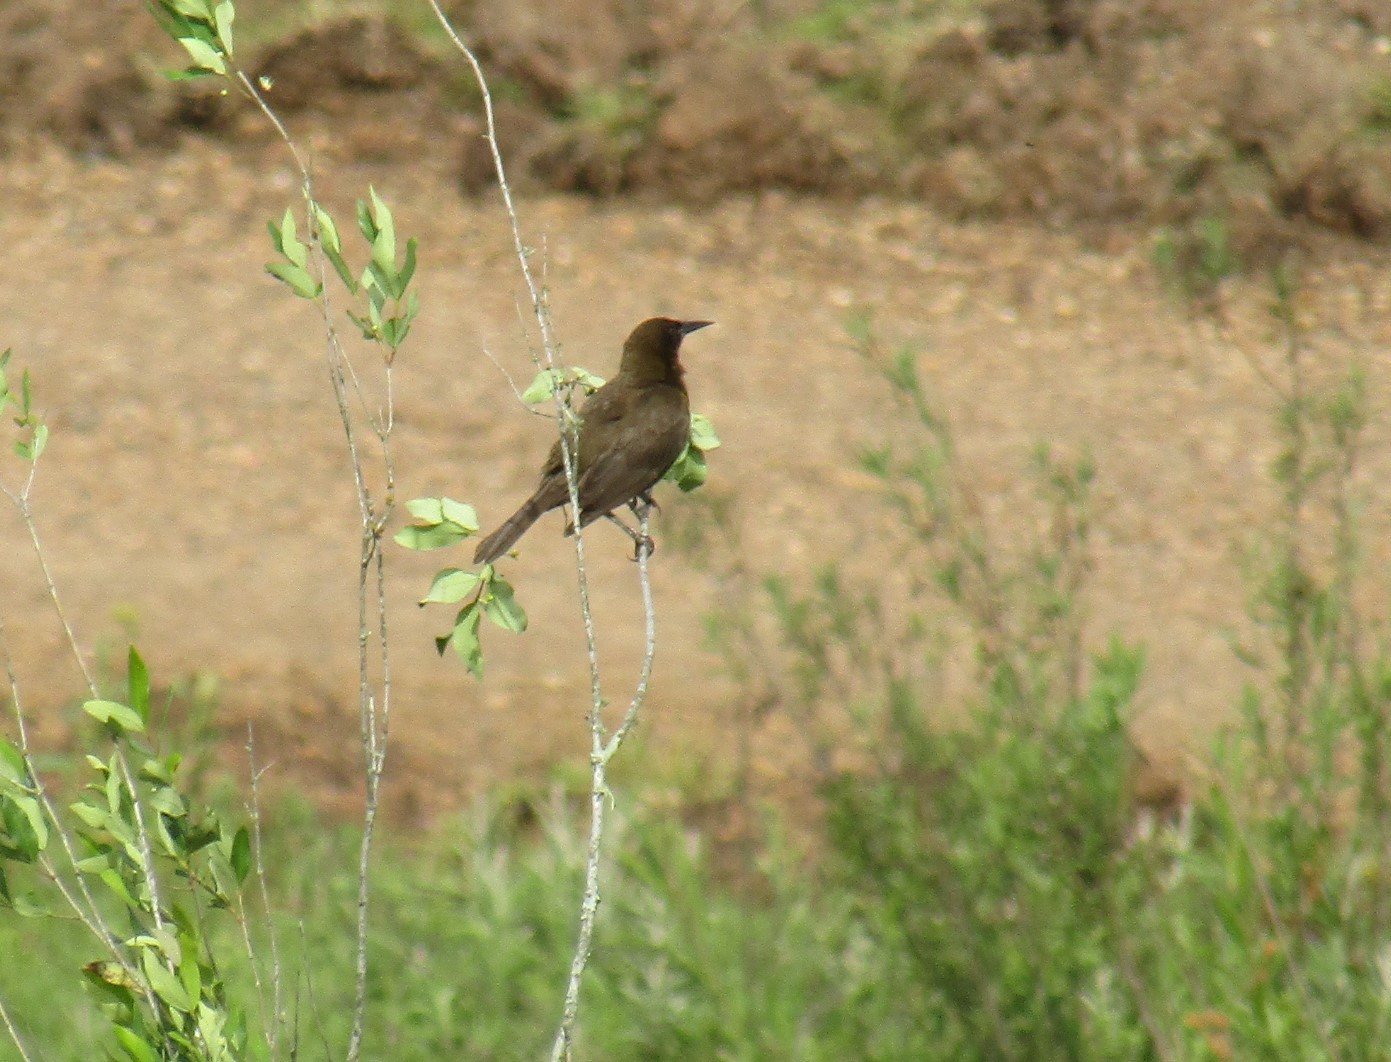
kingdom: Animalia
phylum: Chordata
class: Aves
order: Passeriformes
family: Icteridae
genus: Pseudoleistes
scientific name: Pseudoleistes virescens
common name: Brown-and-yellow marshbird
